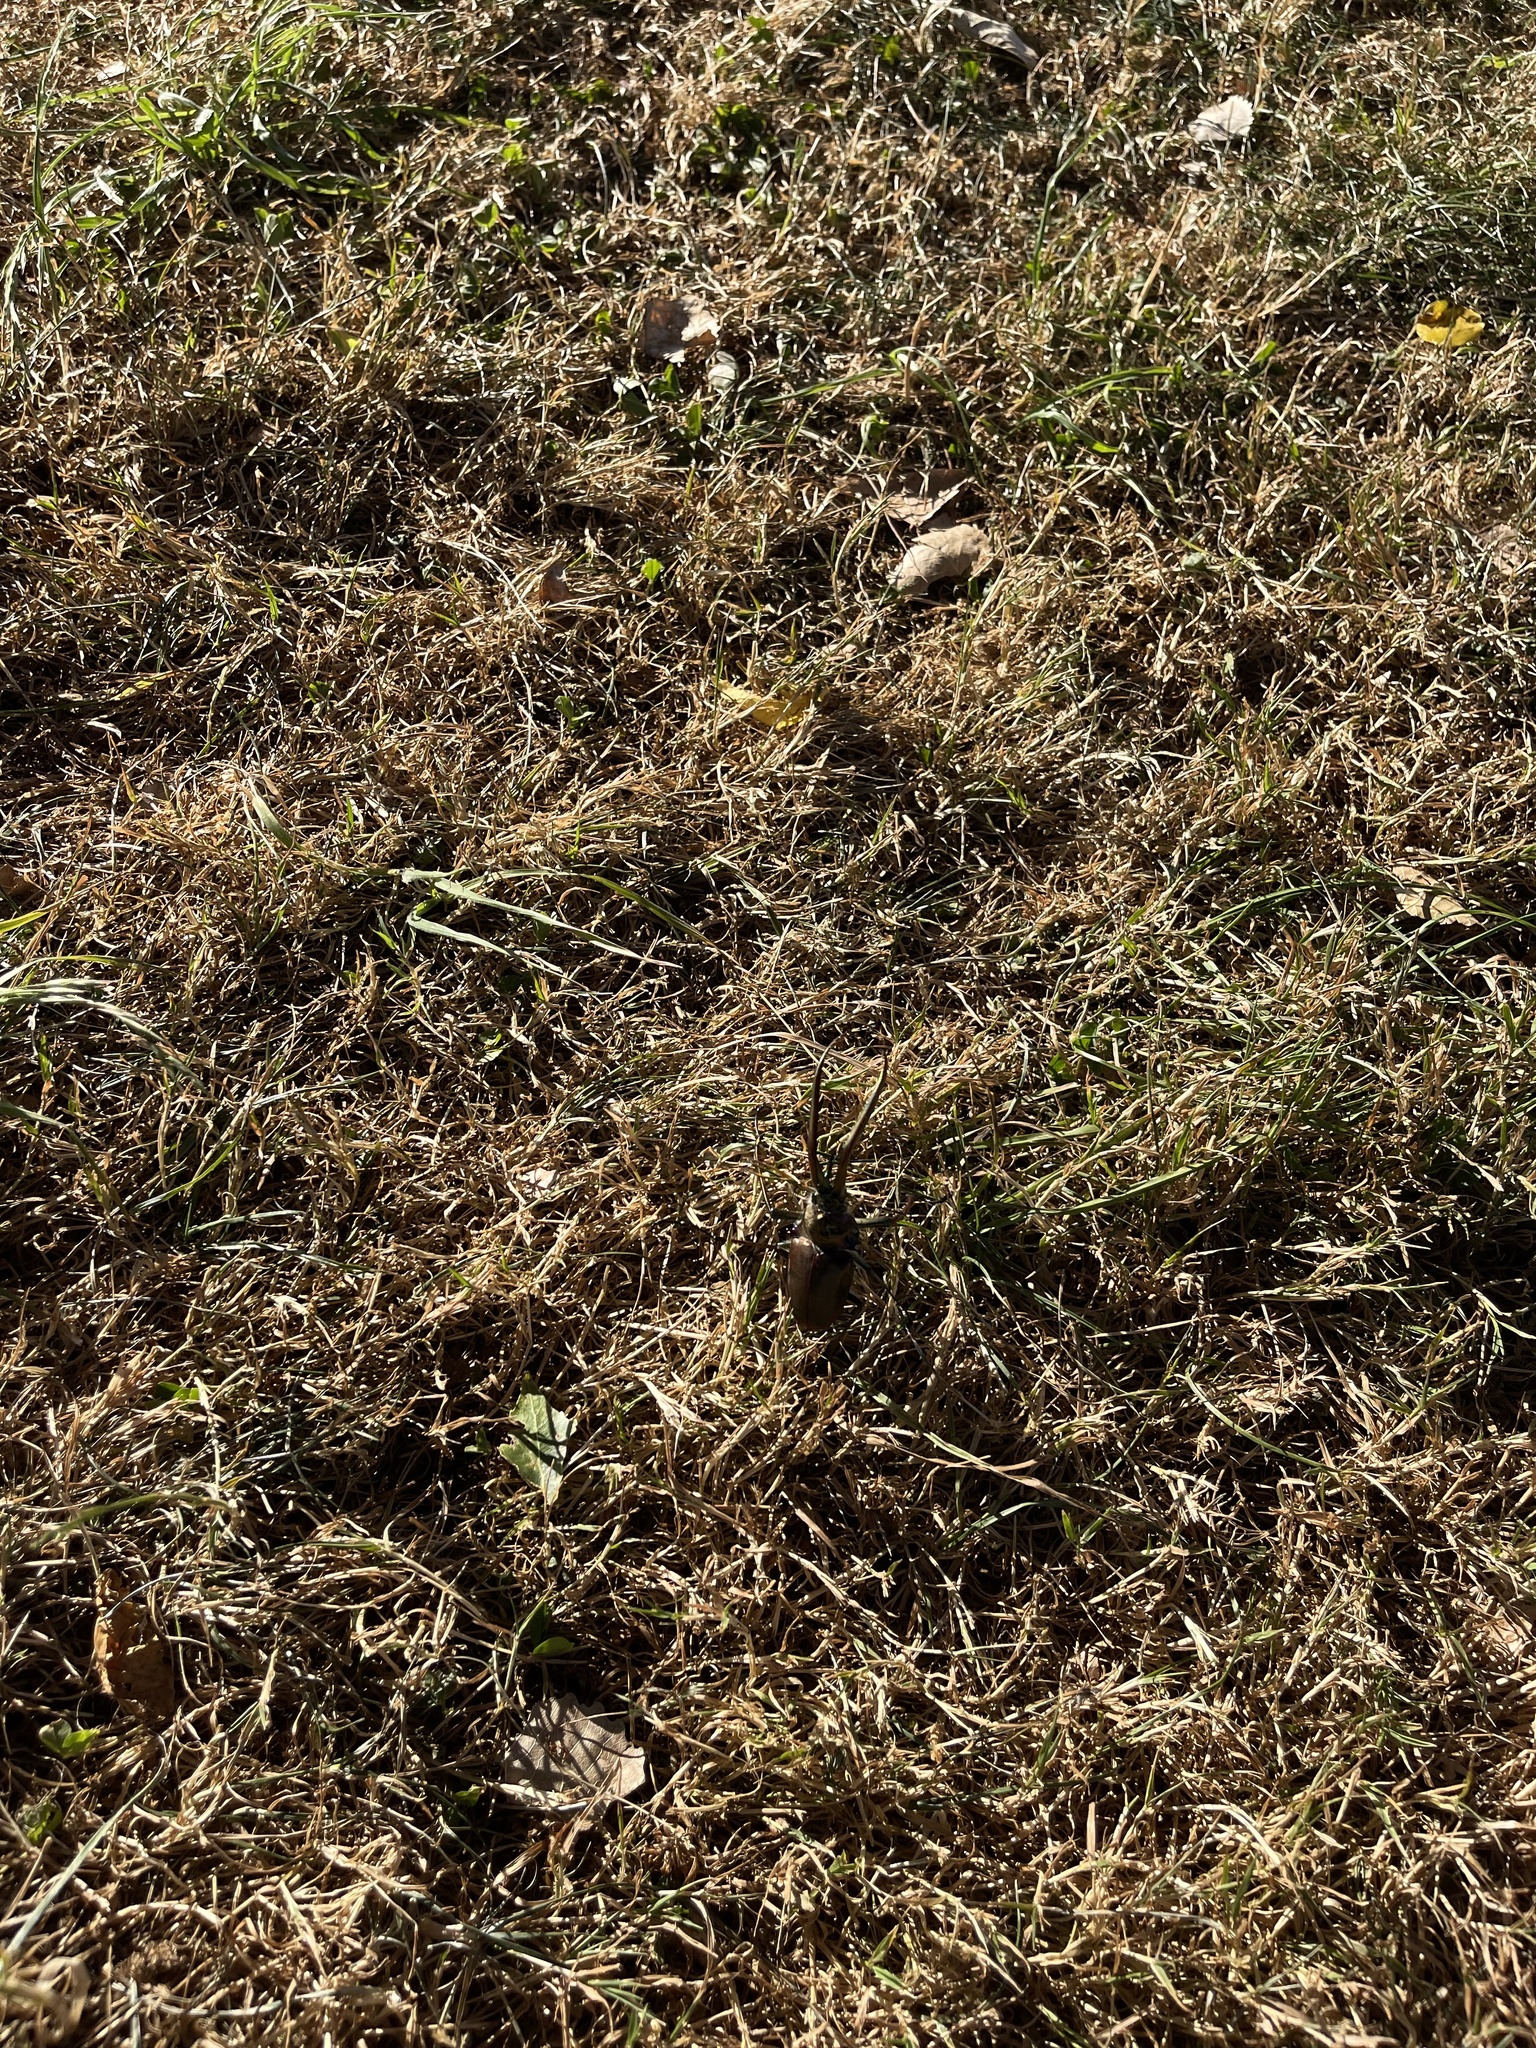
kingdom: Animalia
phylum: Arthropoda
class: Insecta
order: Coleoptera
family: Lucanidae
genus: Chiasognathus
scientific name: Chiasognathus grantii
